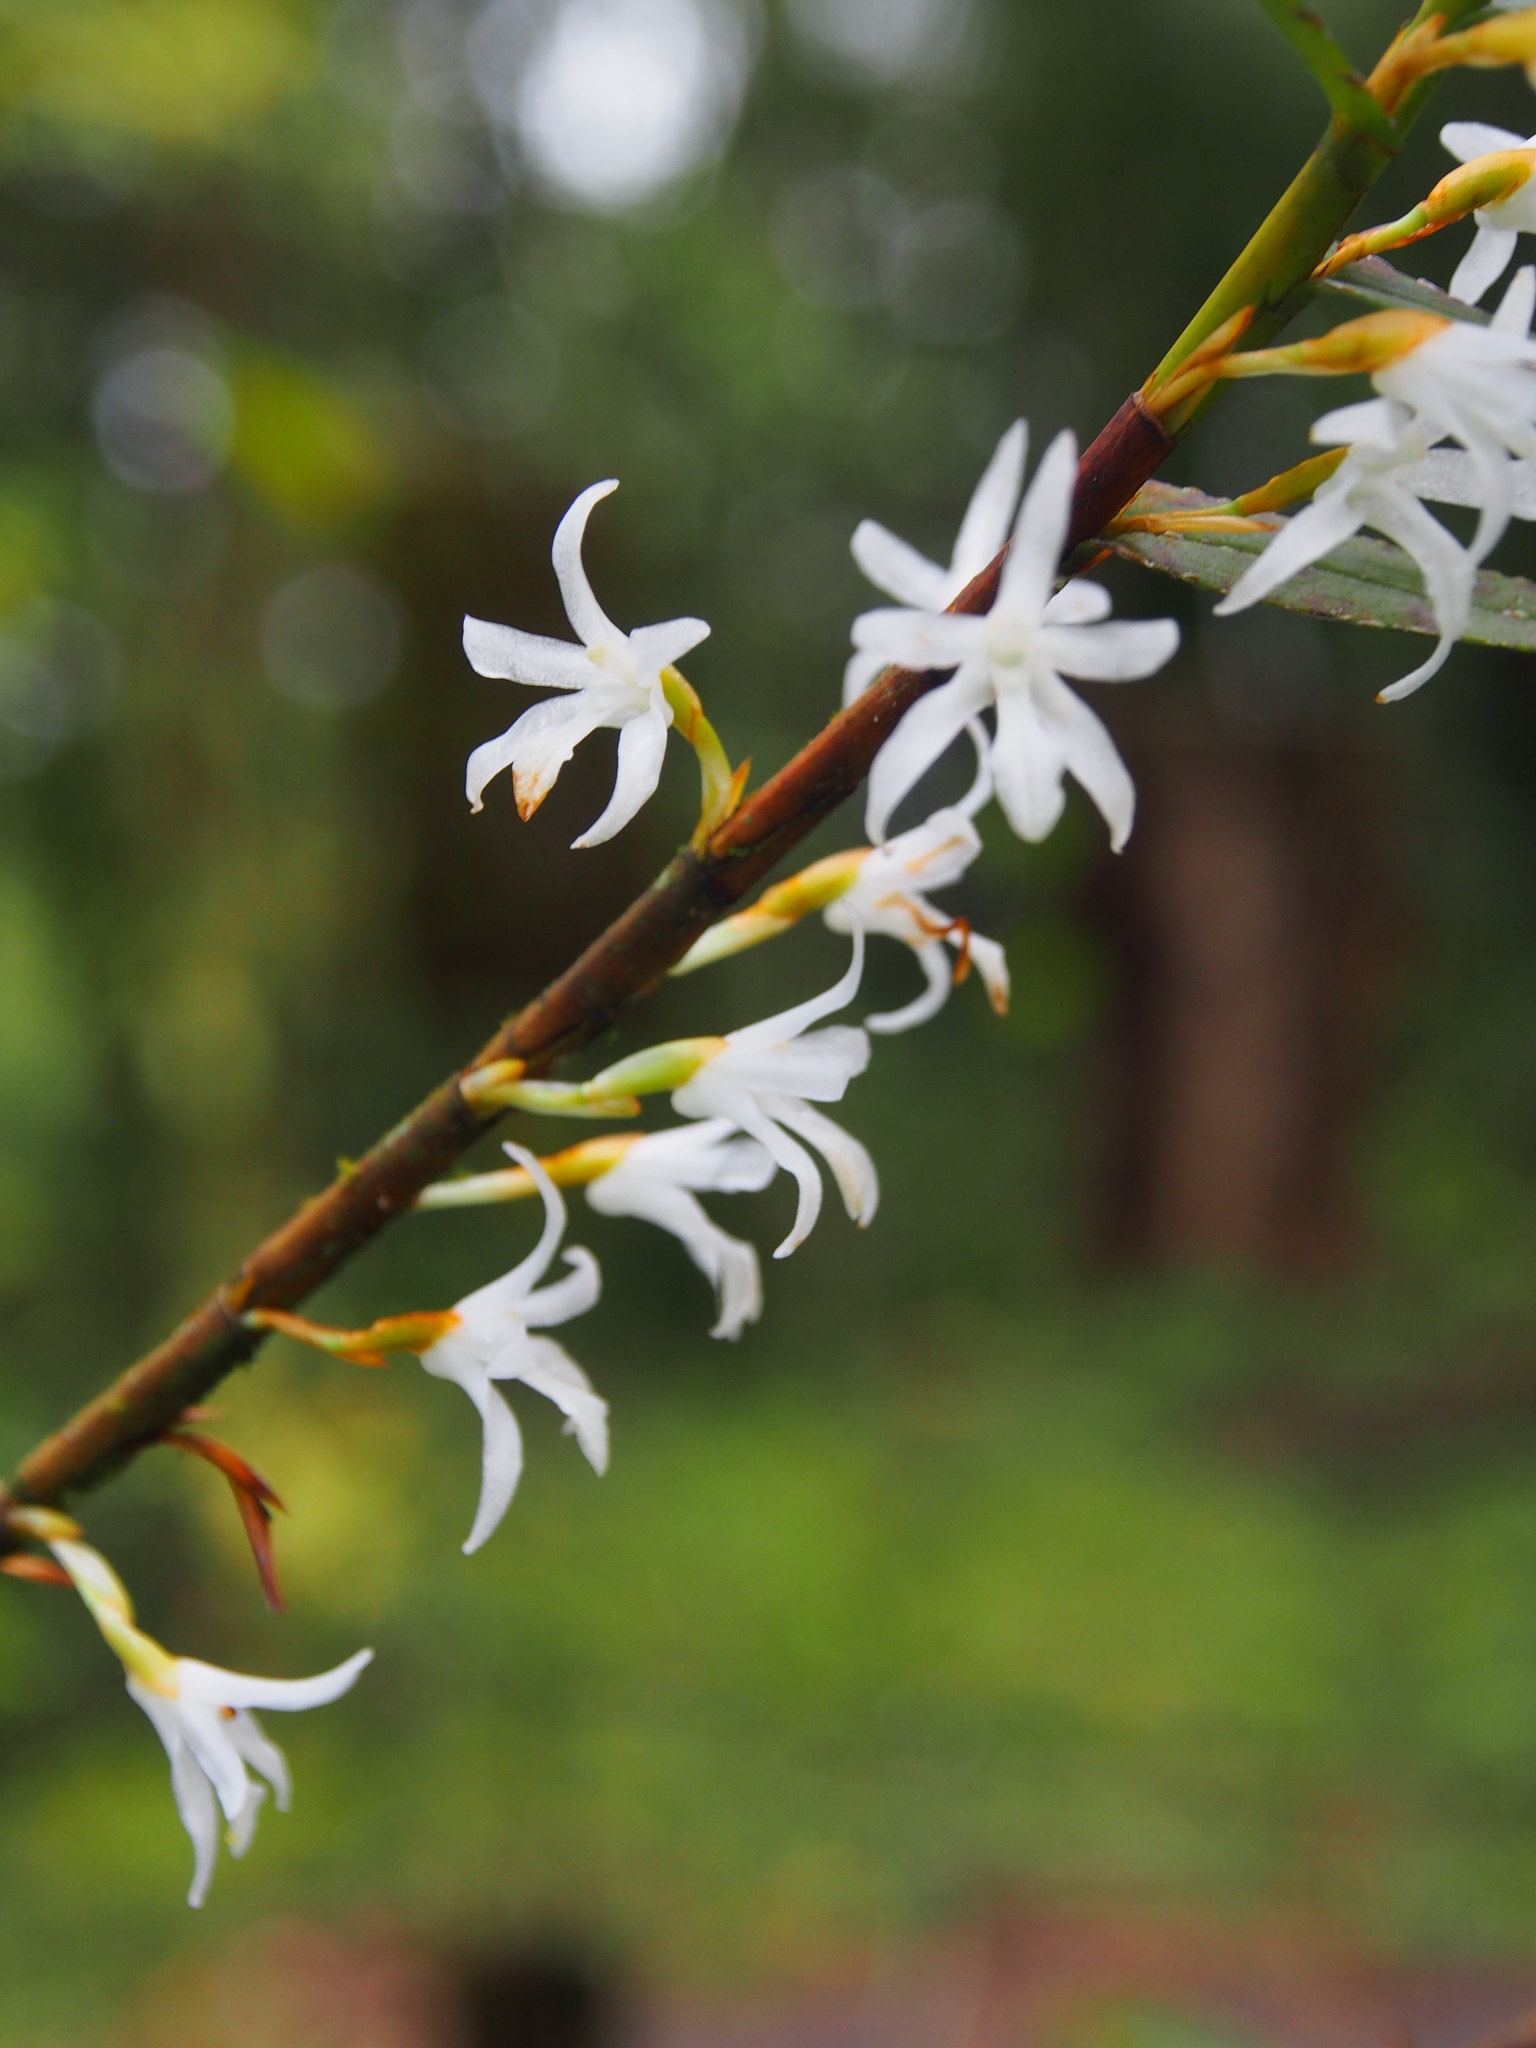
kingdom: Plantae
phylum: Tracheophyta
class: Liliopsida
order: Asparagales
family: Orchidaceae
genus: Maxillaria
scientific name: Maxillaria valerioi
